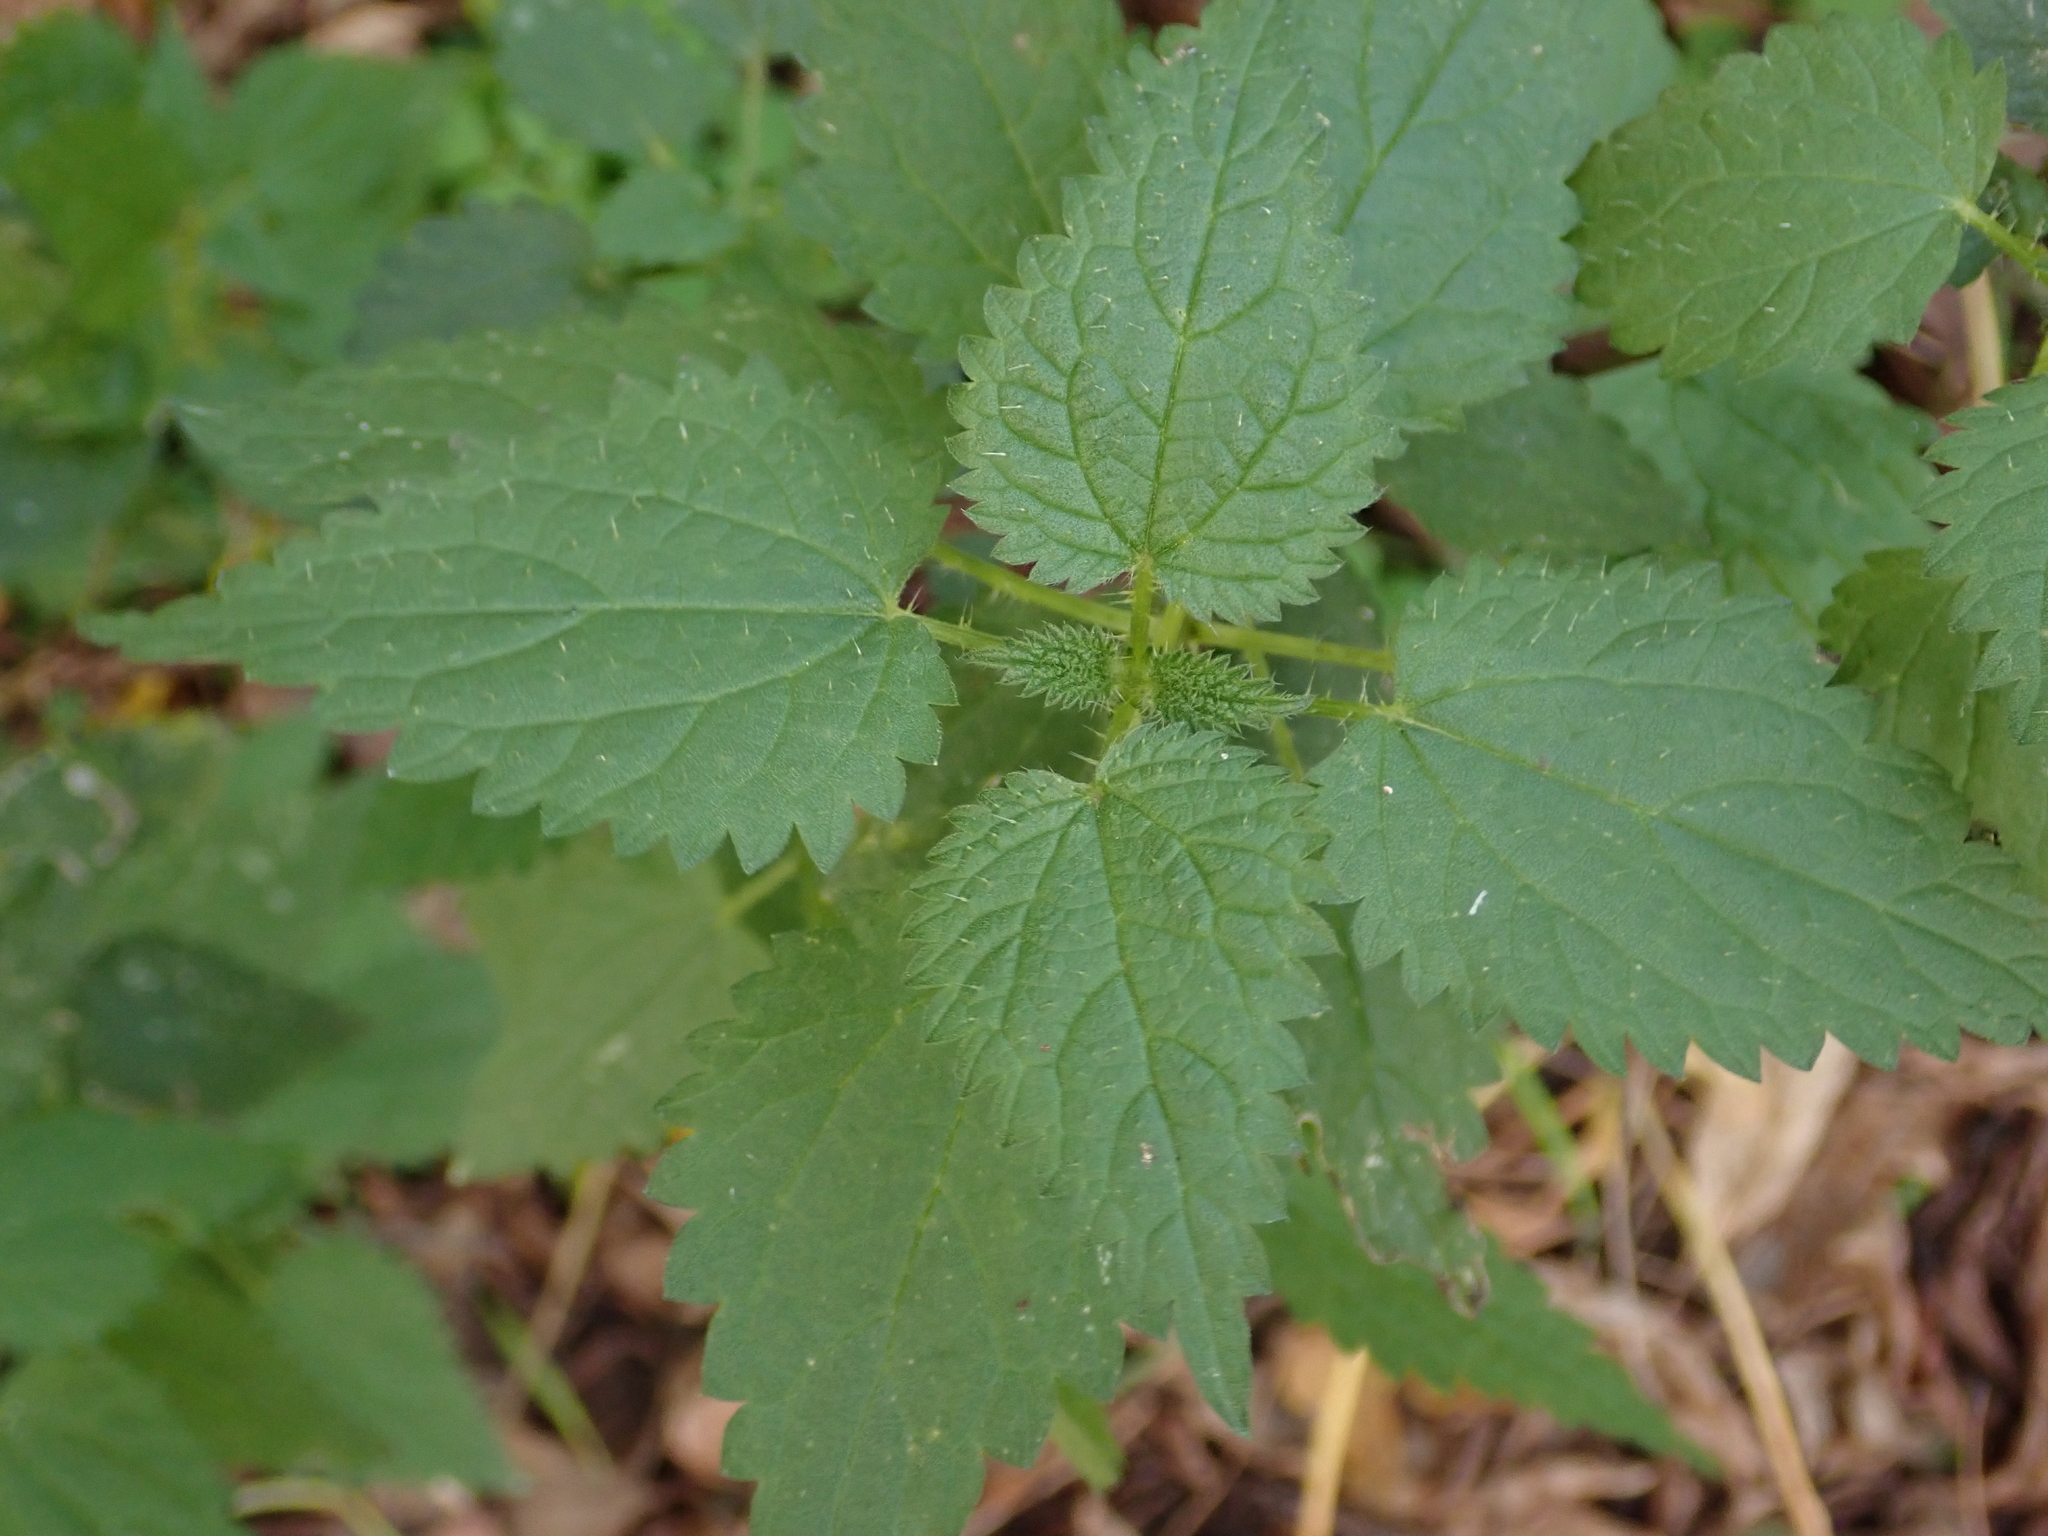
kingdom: Plantae
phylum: Tracheophyta
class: Magnoliopsida
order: Rosales
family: Urticaceae
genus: Urtica
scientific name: Urtica dioica
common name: Common nettle
